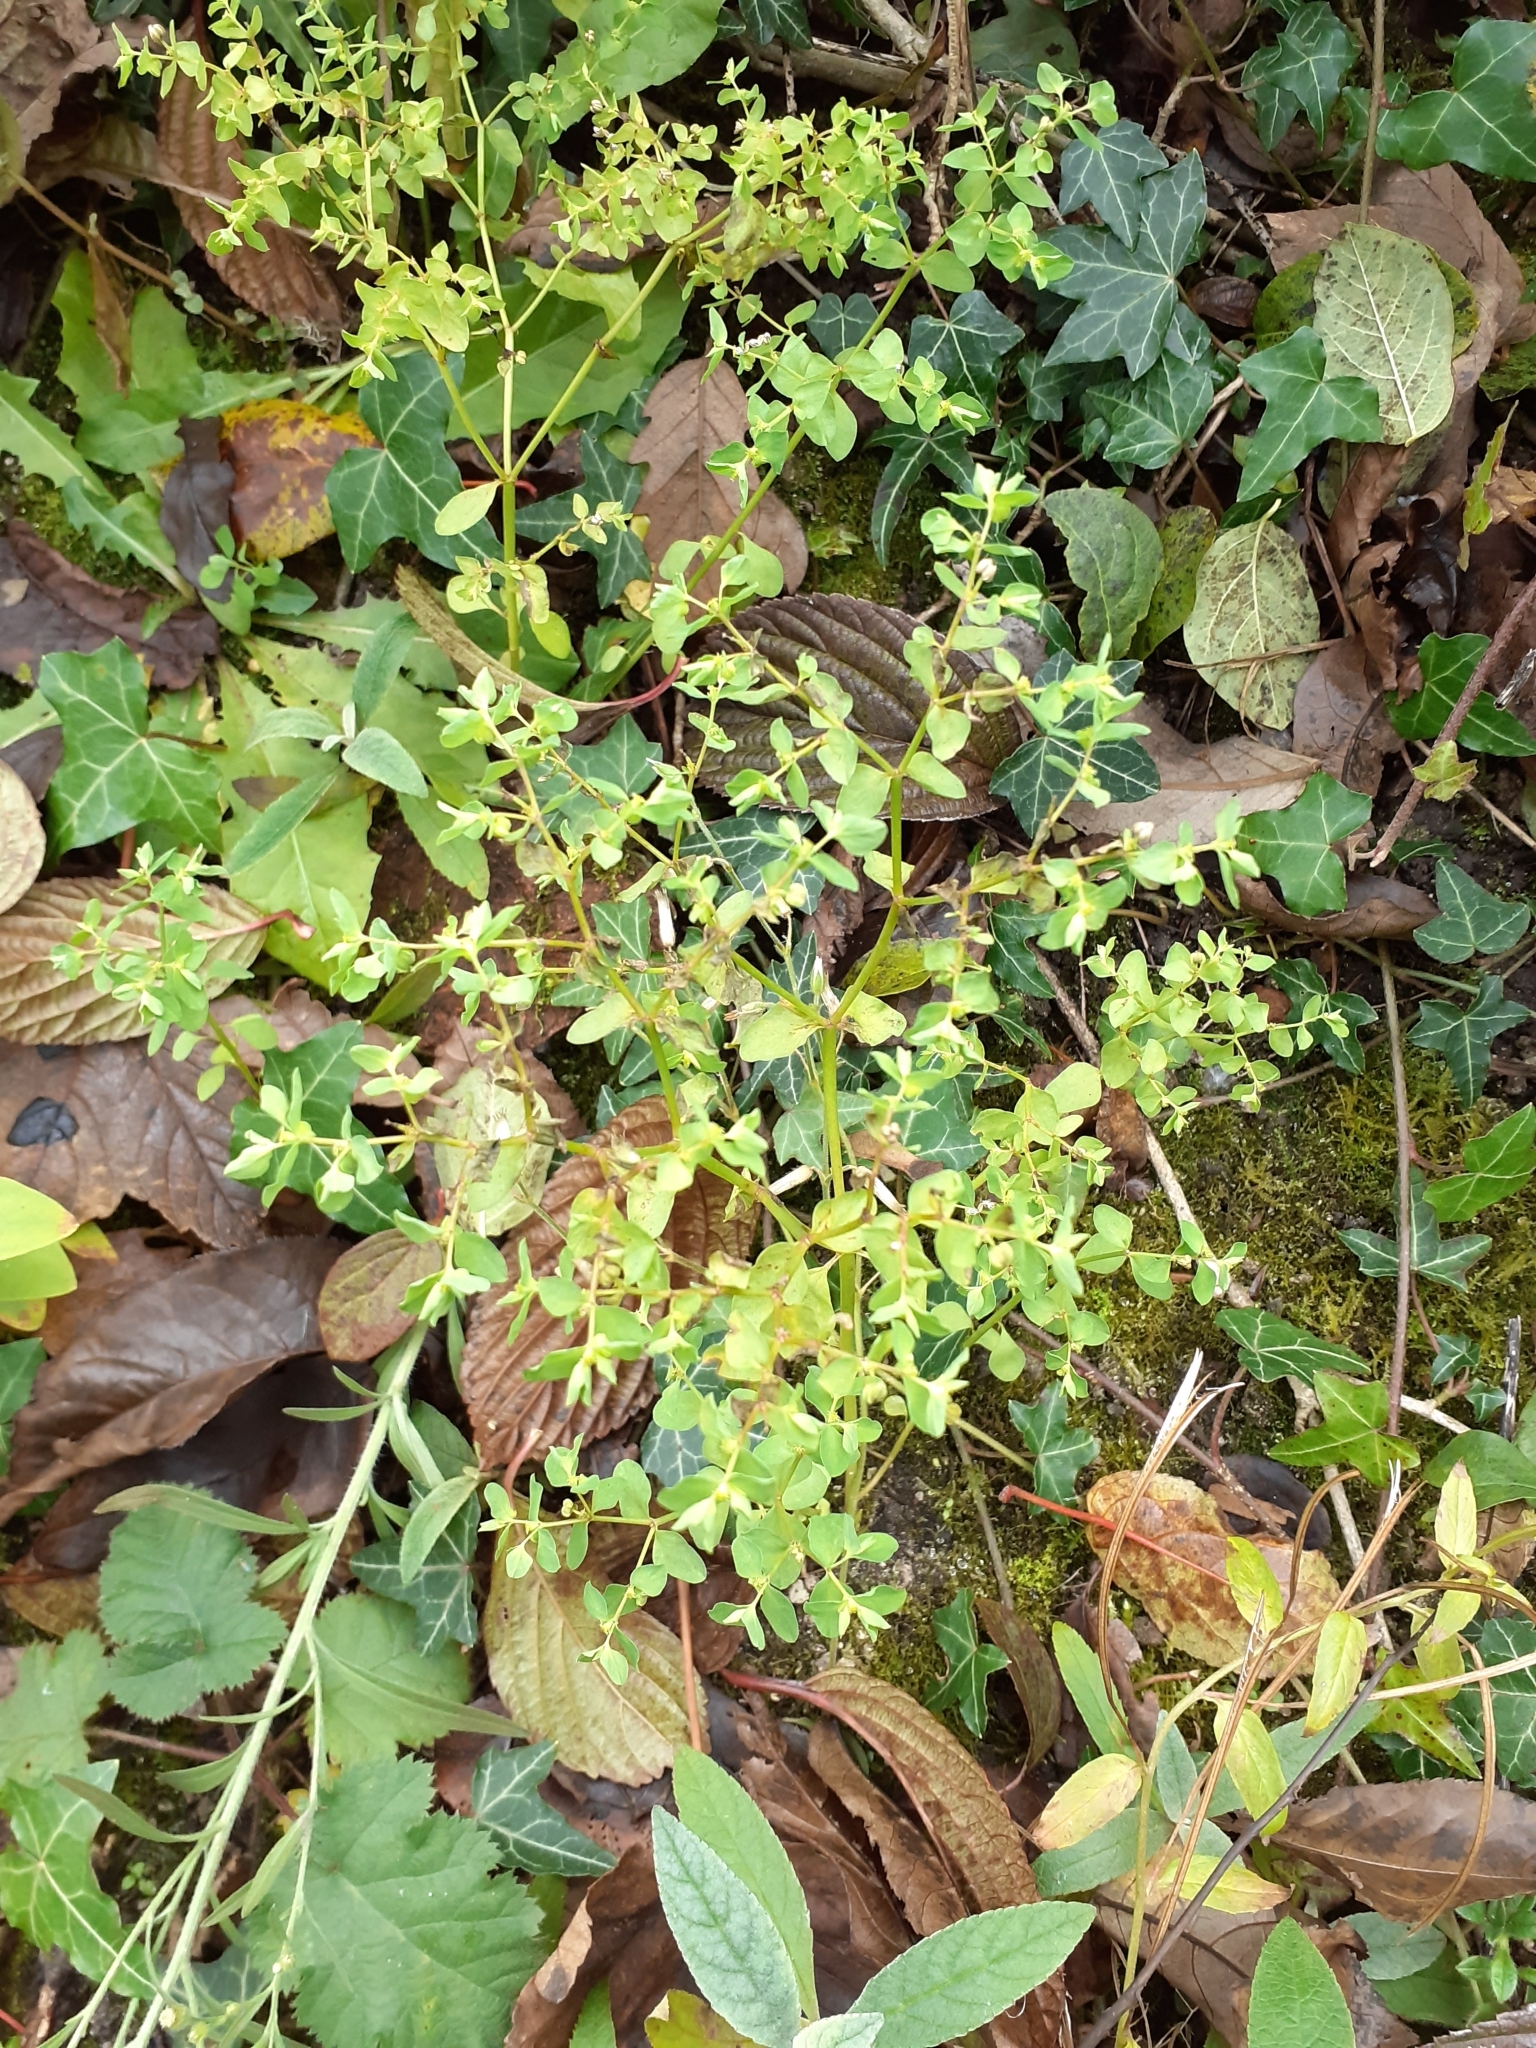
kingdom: Plantae
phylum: Tracheophyta
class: Magnoliopsida
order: Malpighiales
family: Euphorbiaceae
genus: Euphorbia
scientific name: Euphorbia peplus
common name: Petty spurge
